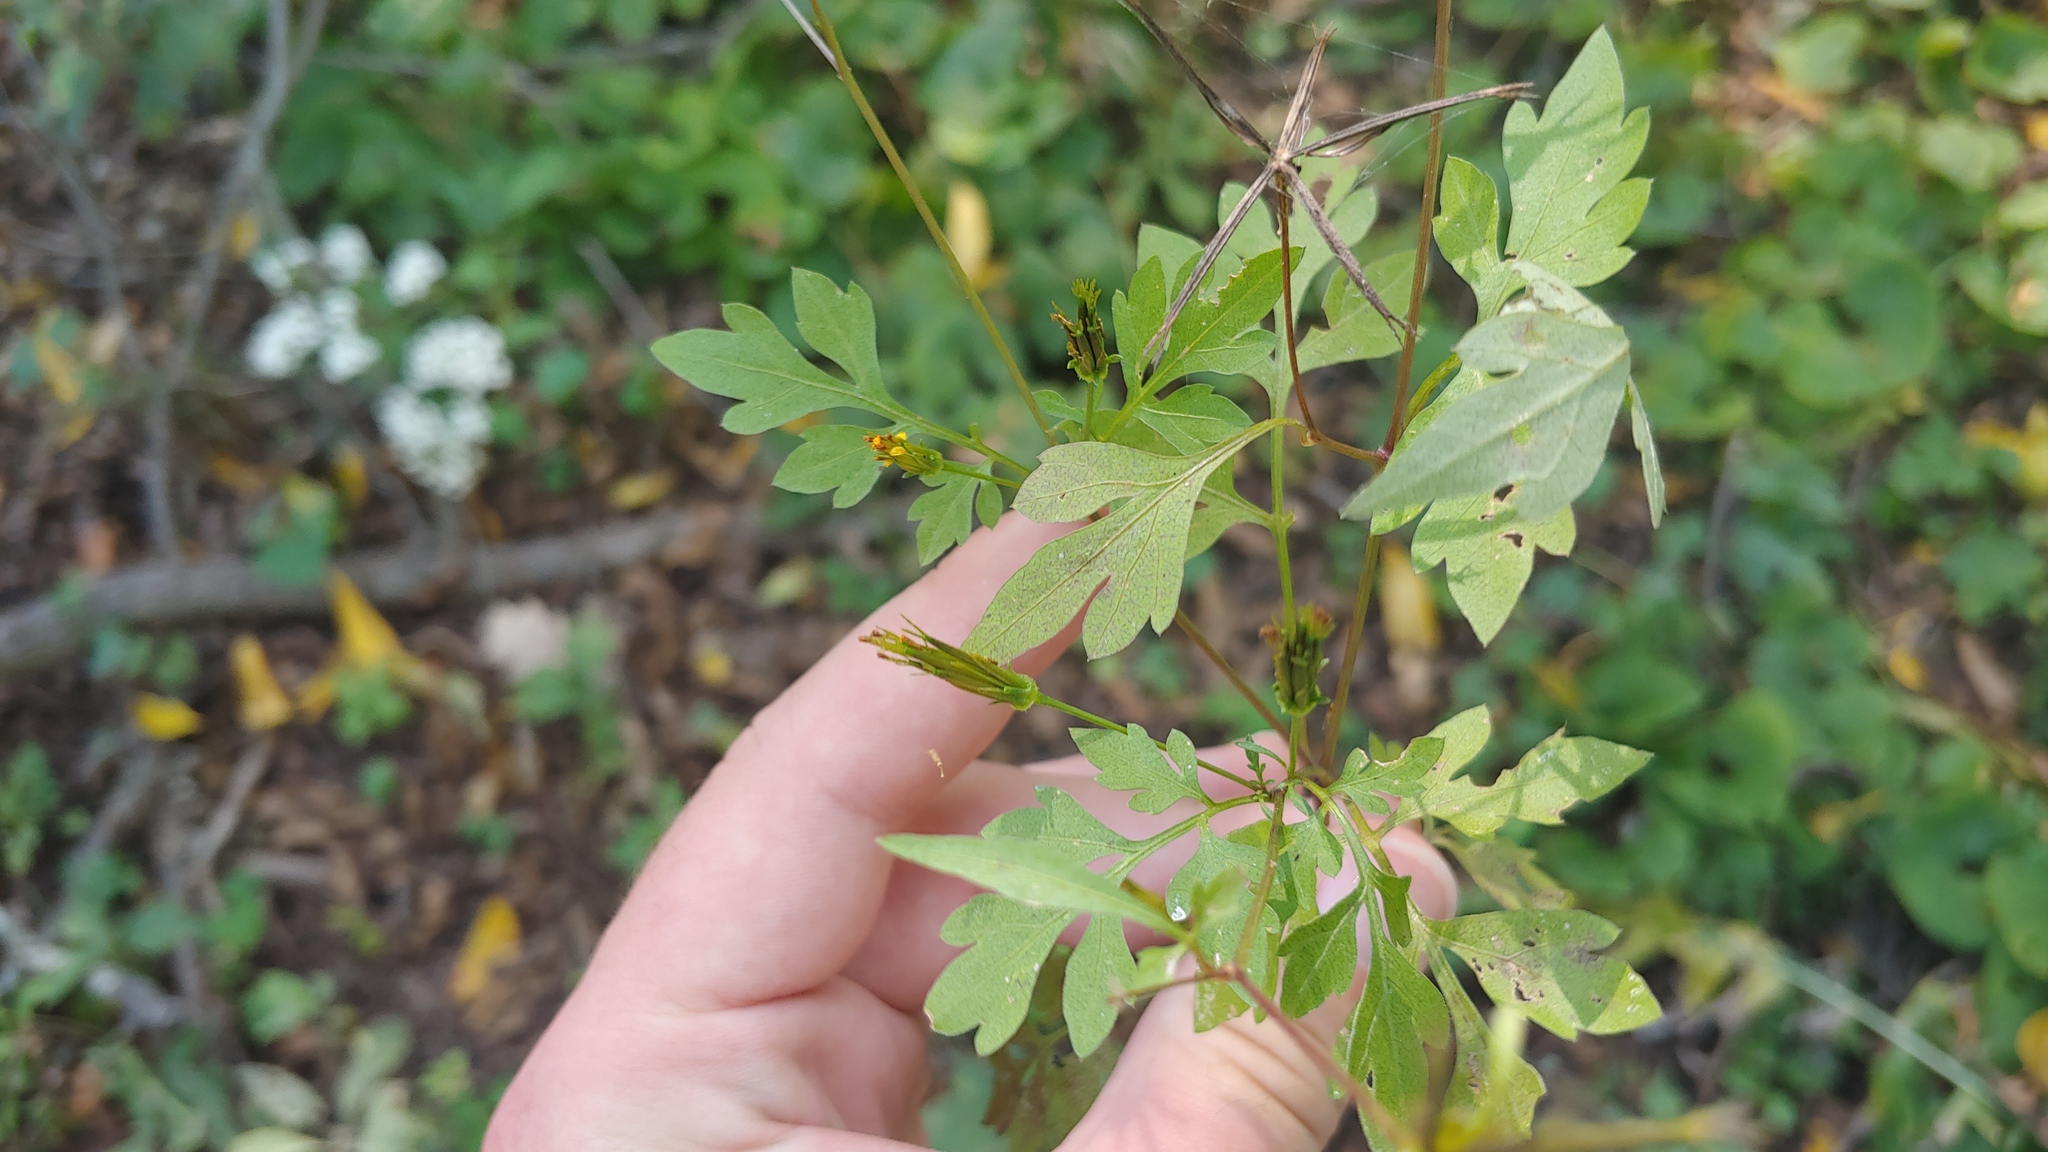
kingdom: Plantae
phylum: Tracheophyta
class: Magnoliopsida
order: Asterales
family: Asteraceae
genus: Bidens
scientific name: Bidens bipinnata
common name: Spanish-needles
